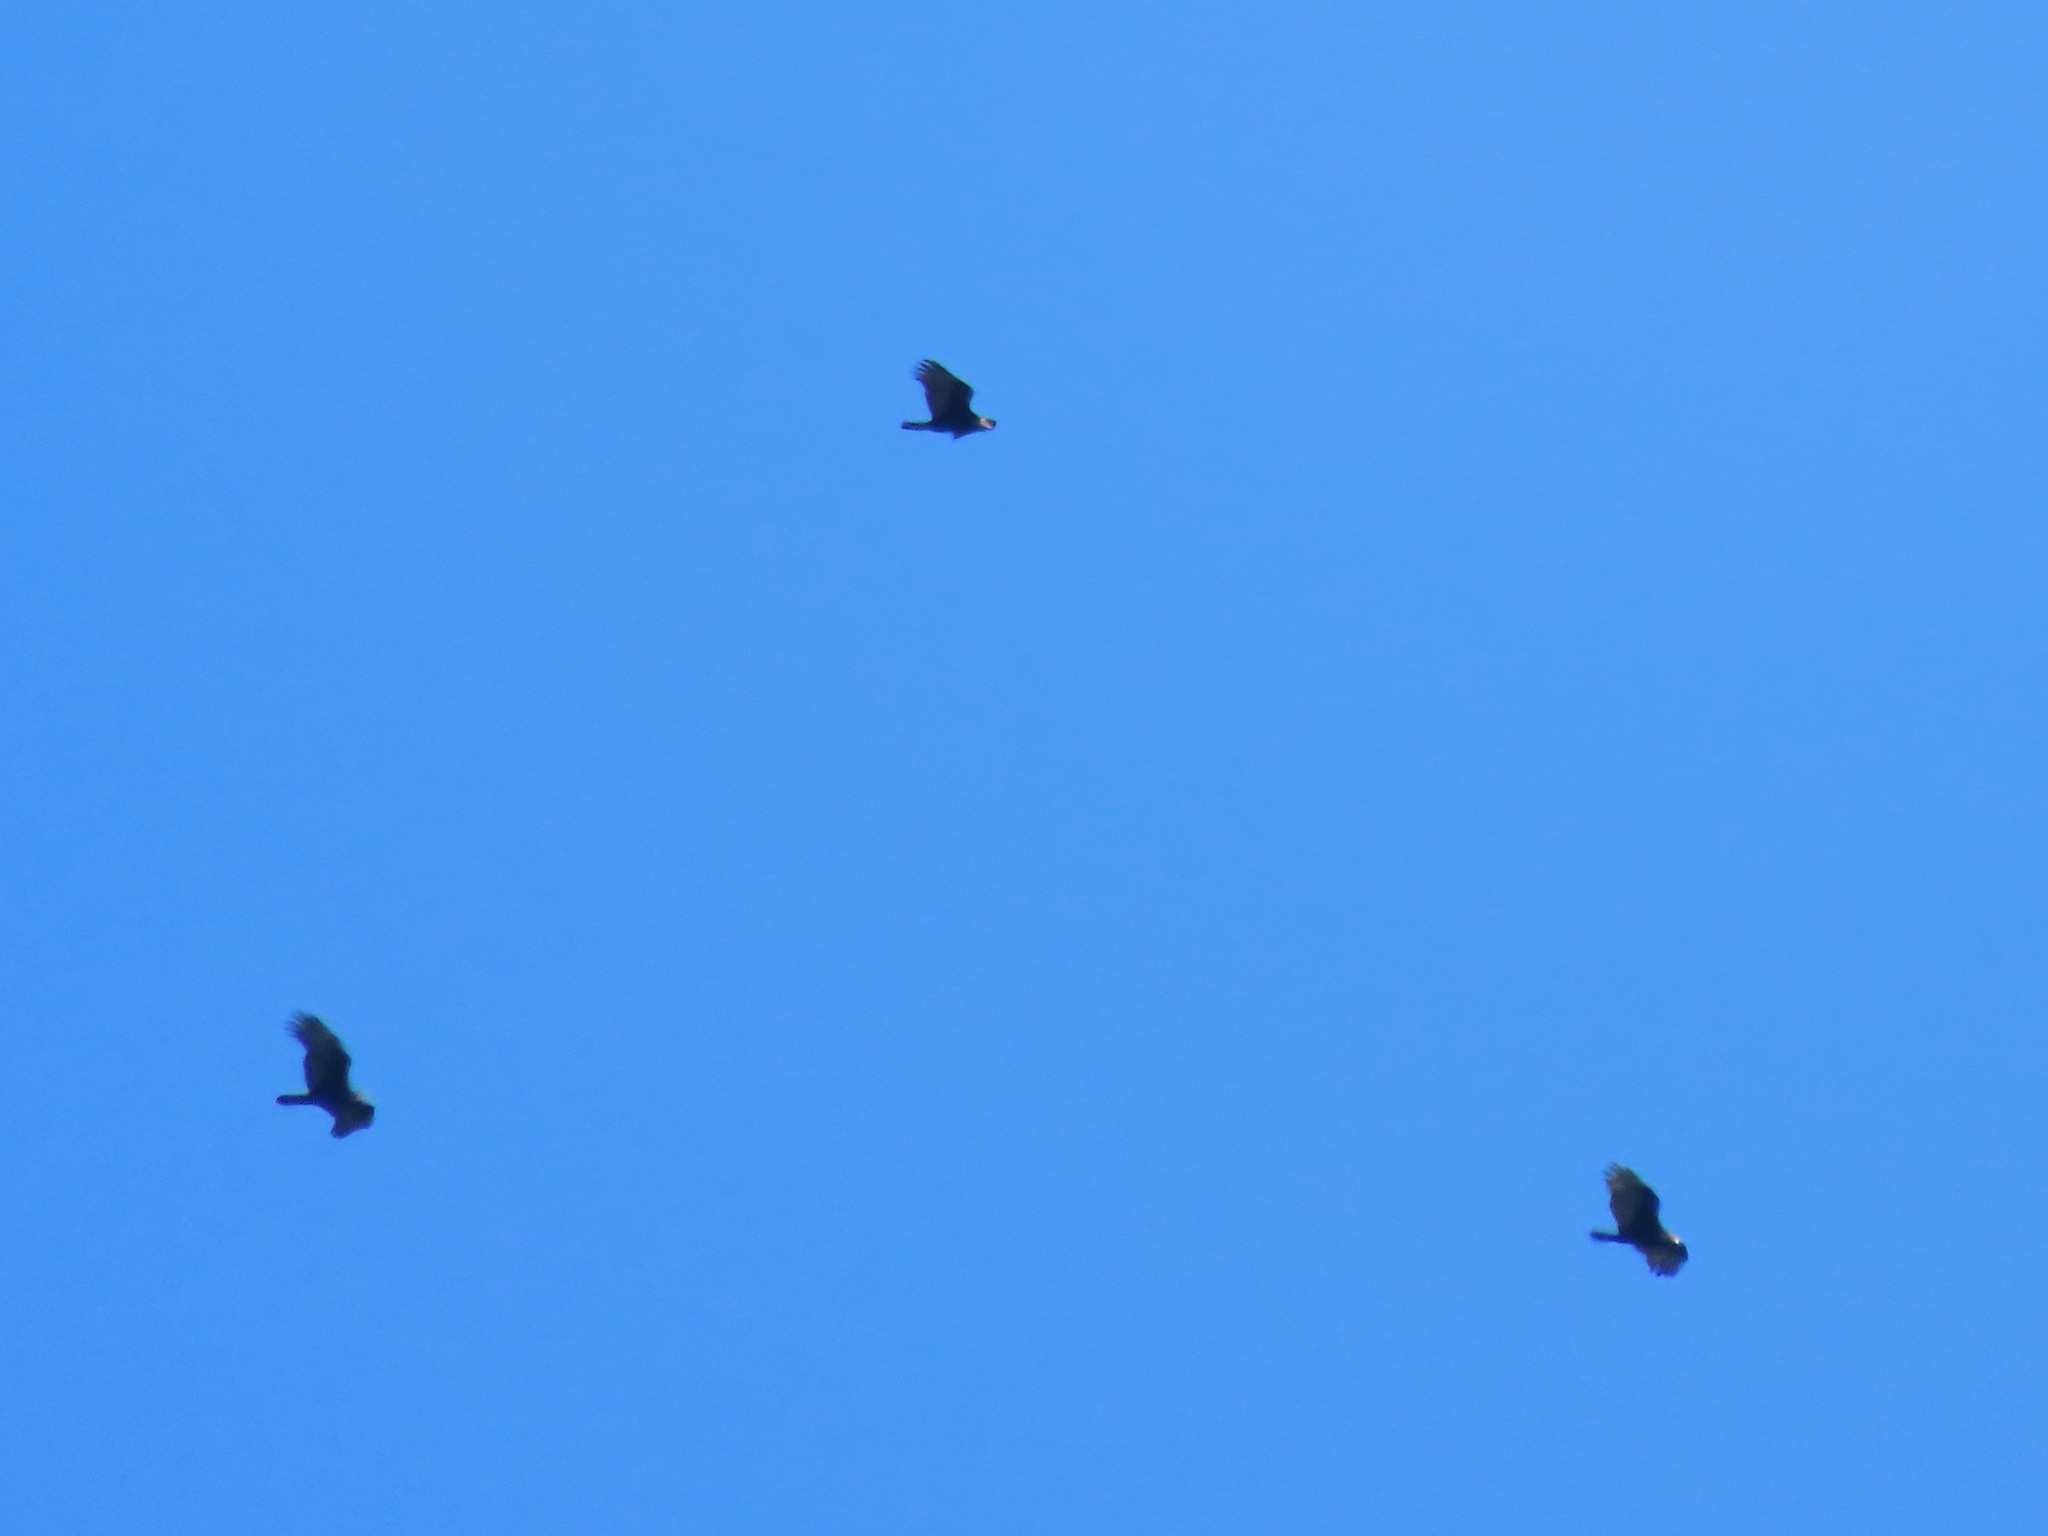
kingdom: Animalia
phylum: Chordata
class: Aves
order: Accipitriformes
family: Cathartidae
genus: Cathartes
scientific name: Cathartes aura
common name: Turkey vulture
